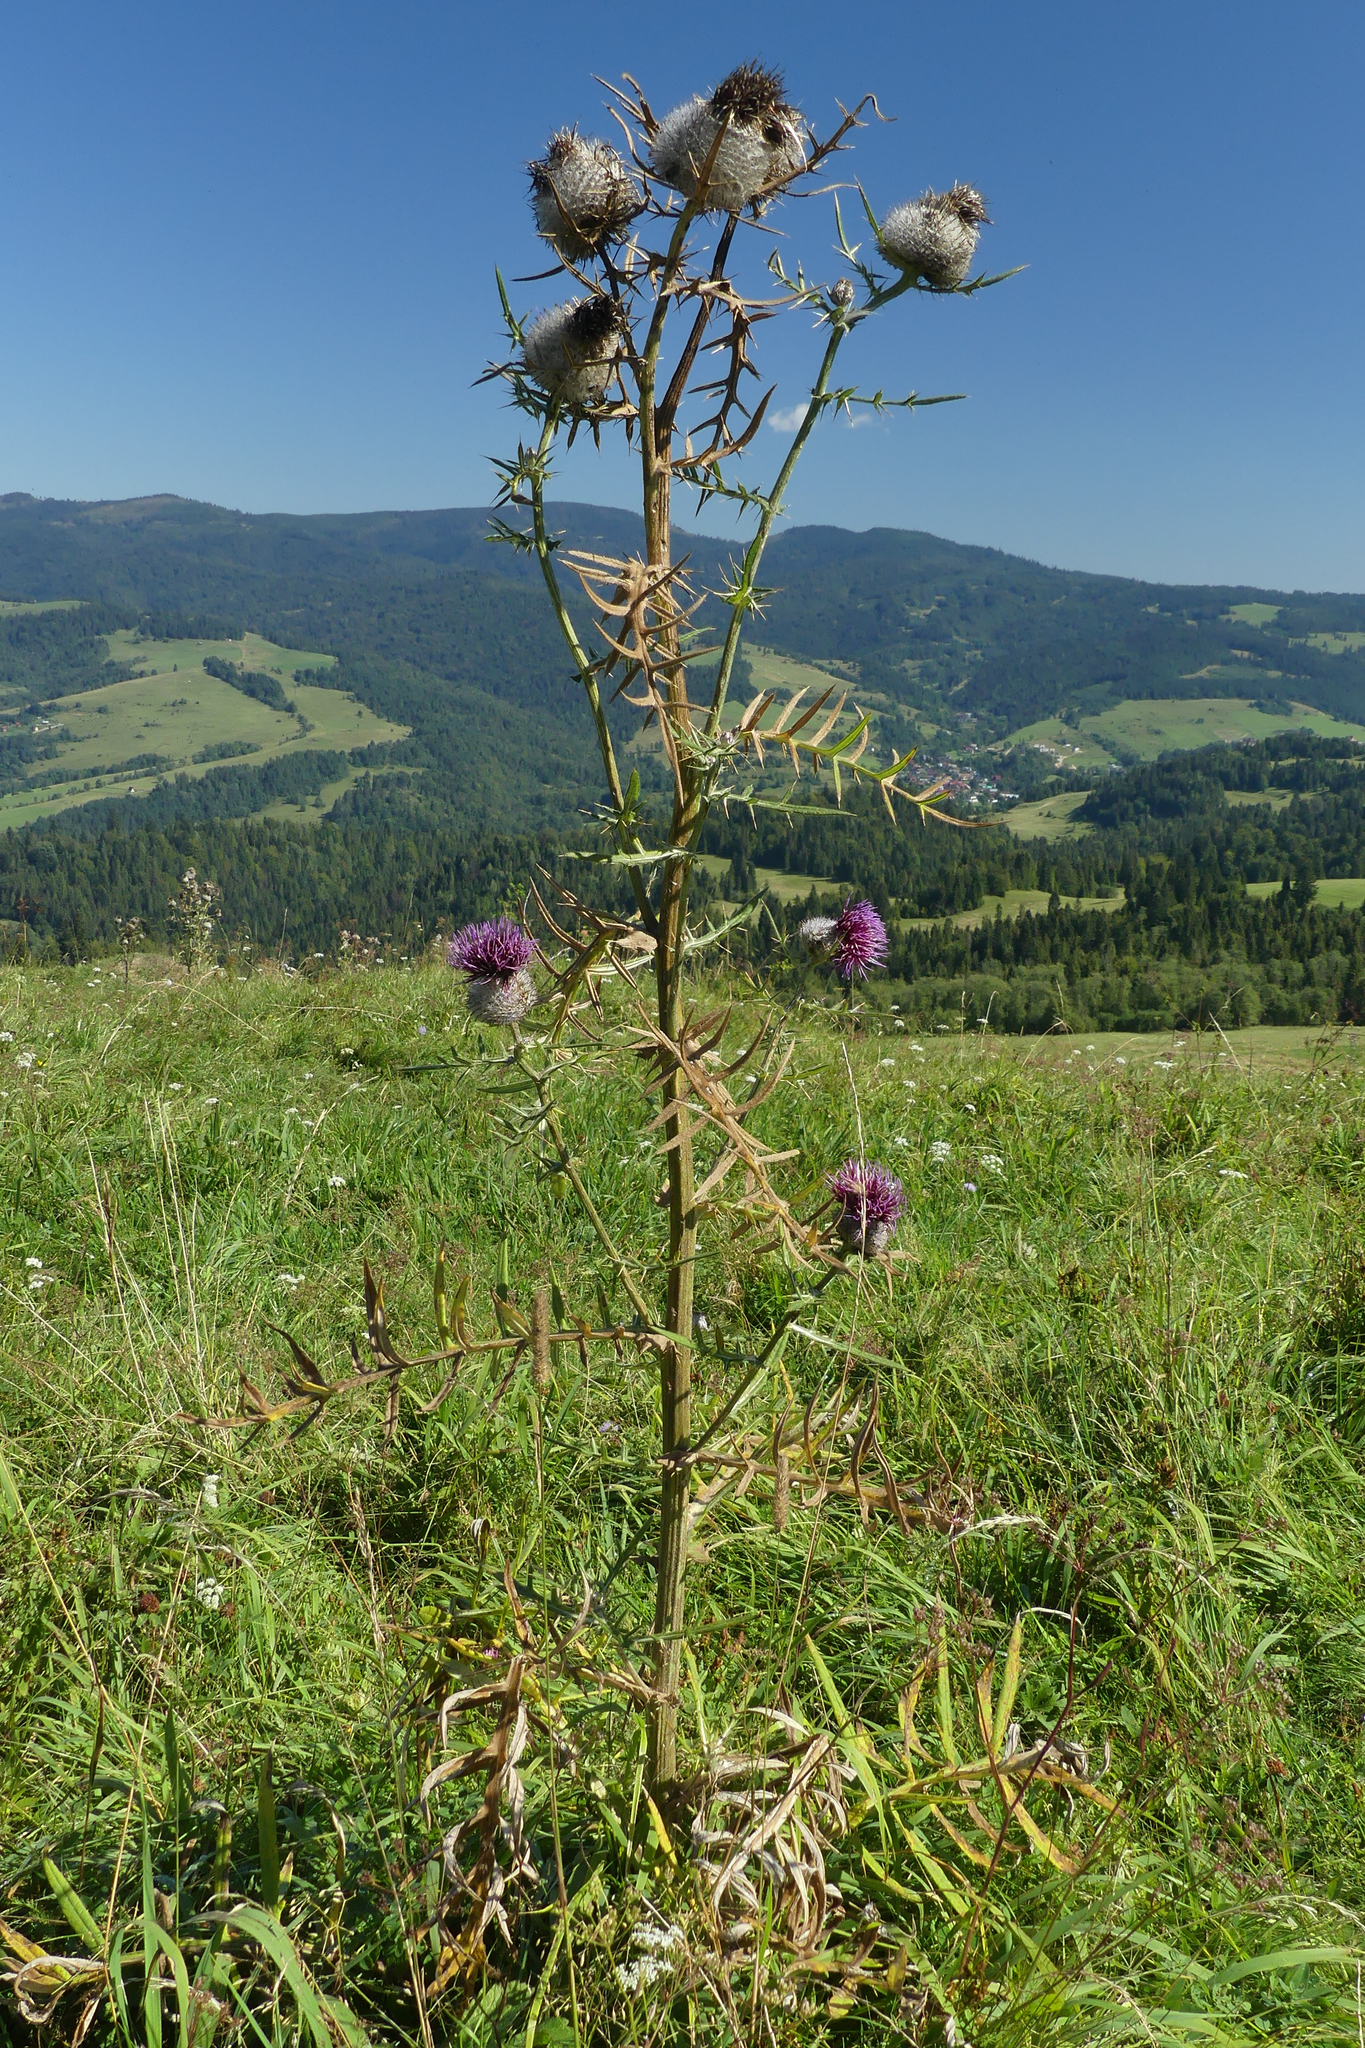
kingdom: Plantae
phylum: Tracheophyta
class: Magnoliopsida
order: Asterales
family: Asteraceae
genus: Lophiolepis
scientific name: Lophiolepis eriophora
